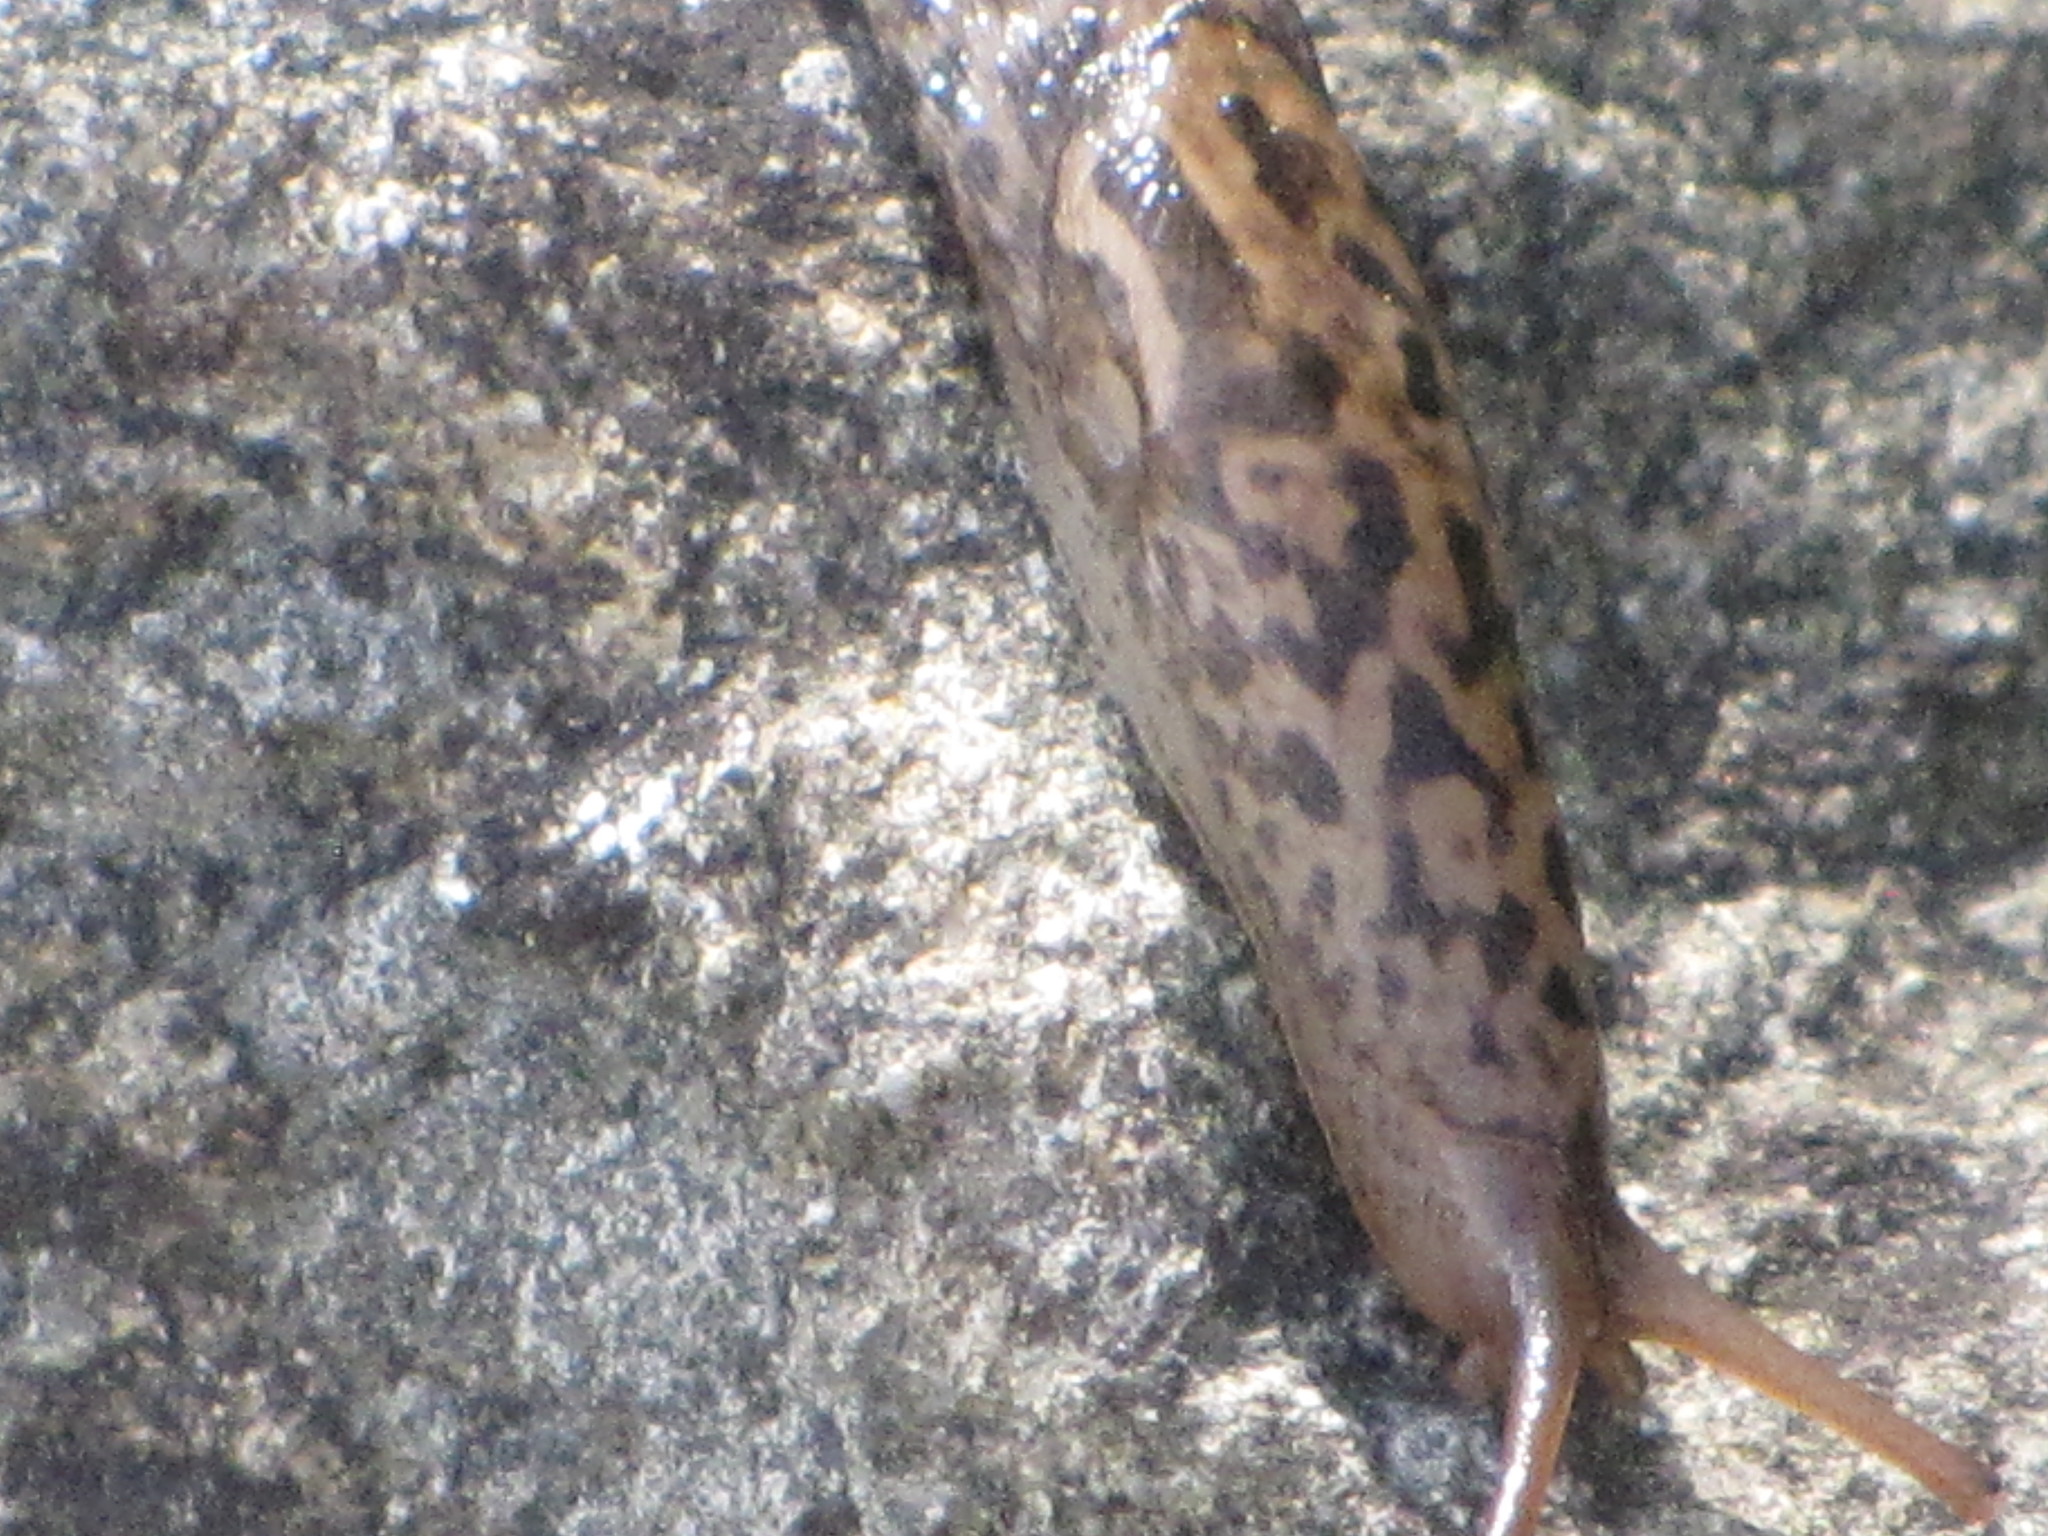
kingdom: Animalia
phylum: Mollusca
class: Gastropoda
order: Stylommatophora
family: Limacidae
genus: Limax
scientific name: Limax maximus
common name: Great grey slug
